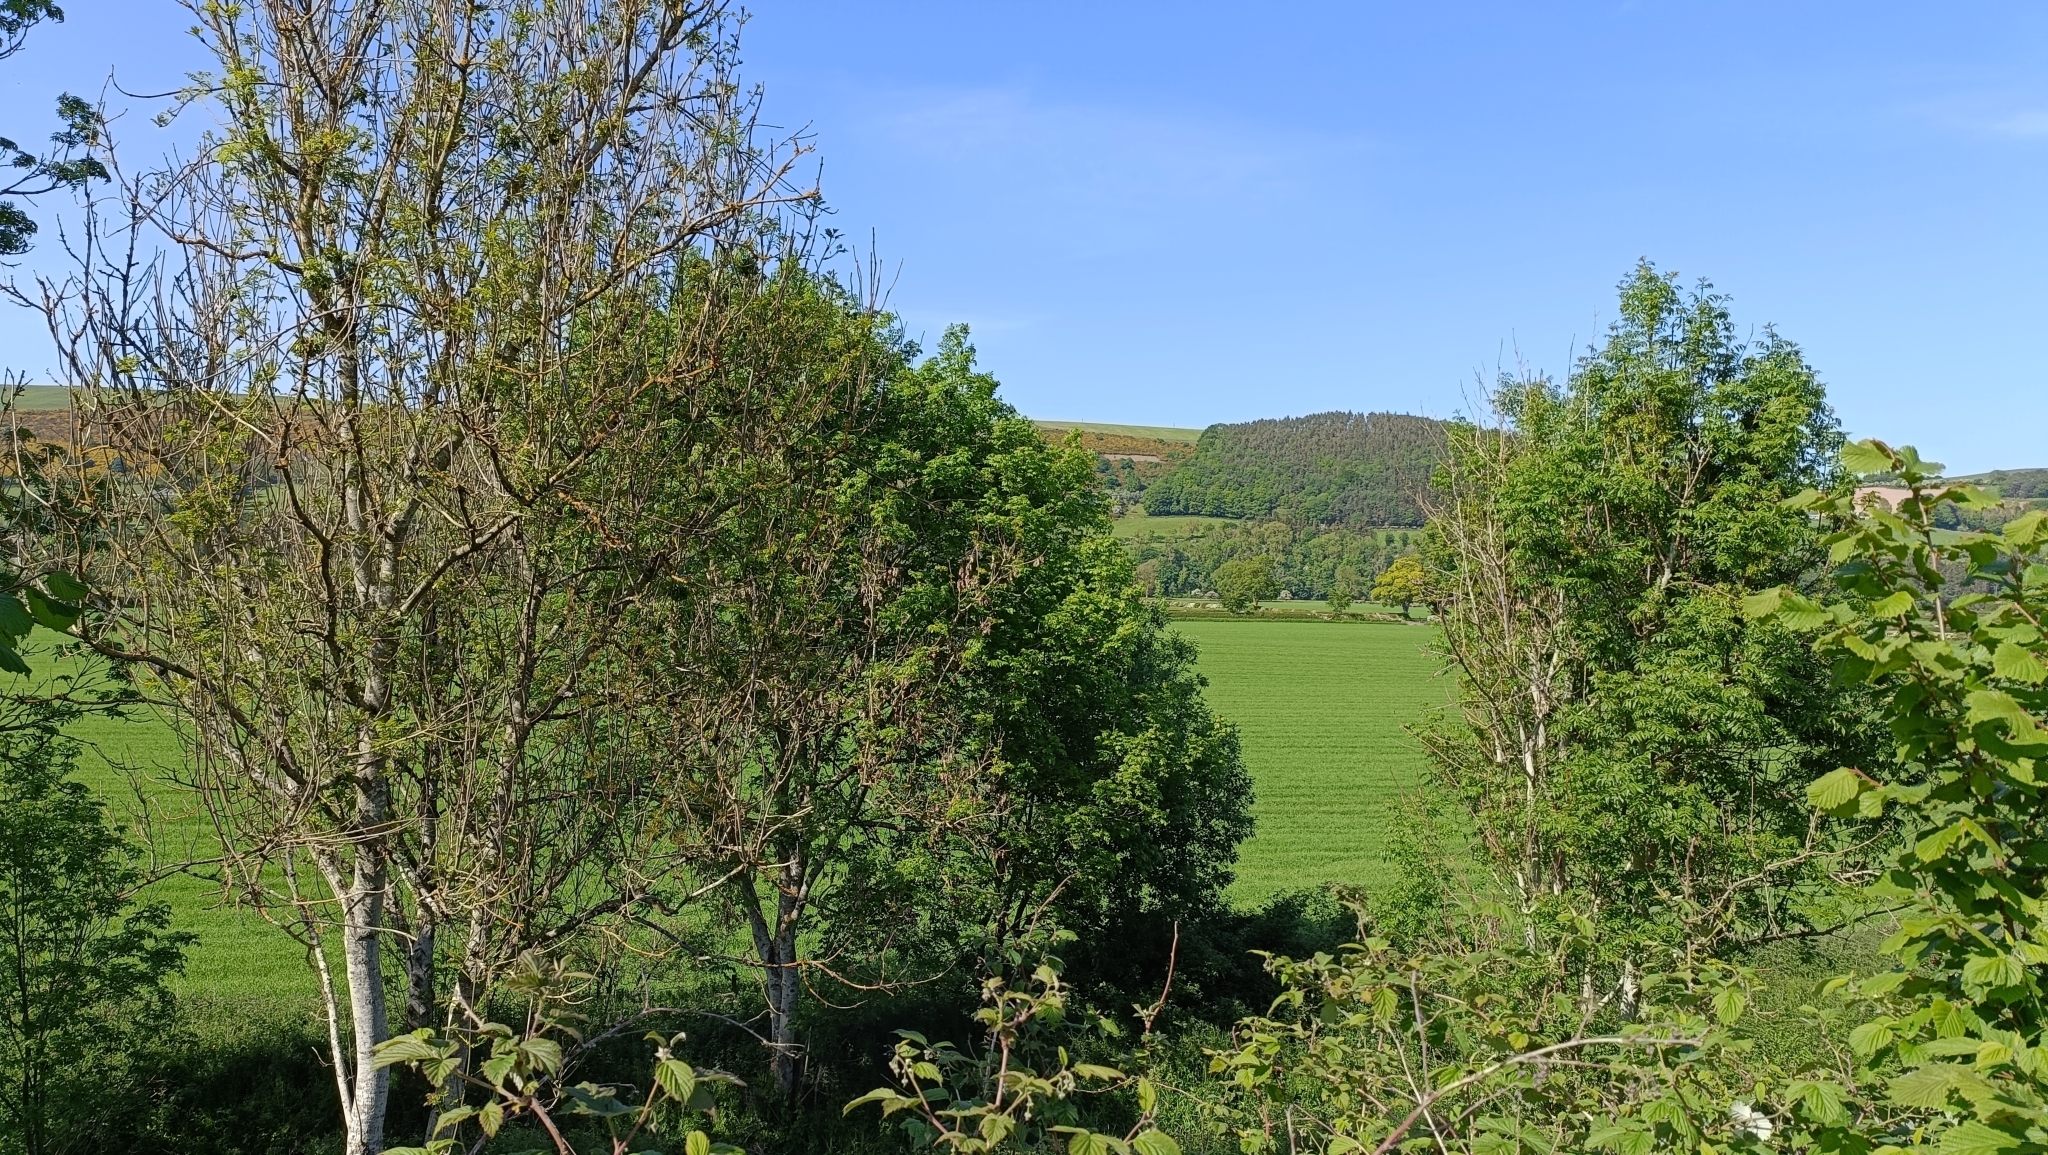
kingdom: Plantae
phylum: Tracheophyta
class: Magnoliopsida
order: Lamiales
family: Oleaceae
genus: Fraxinus
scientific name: Fraxinus excelsior
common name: European ash
